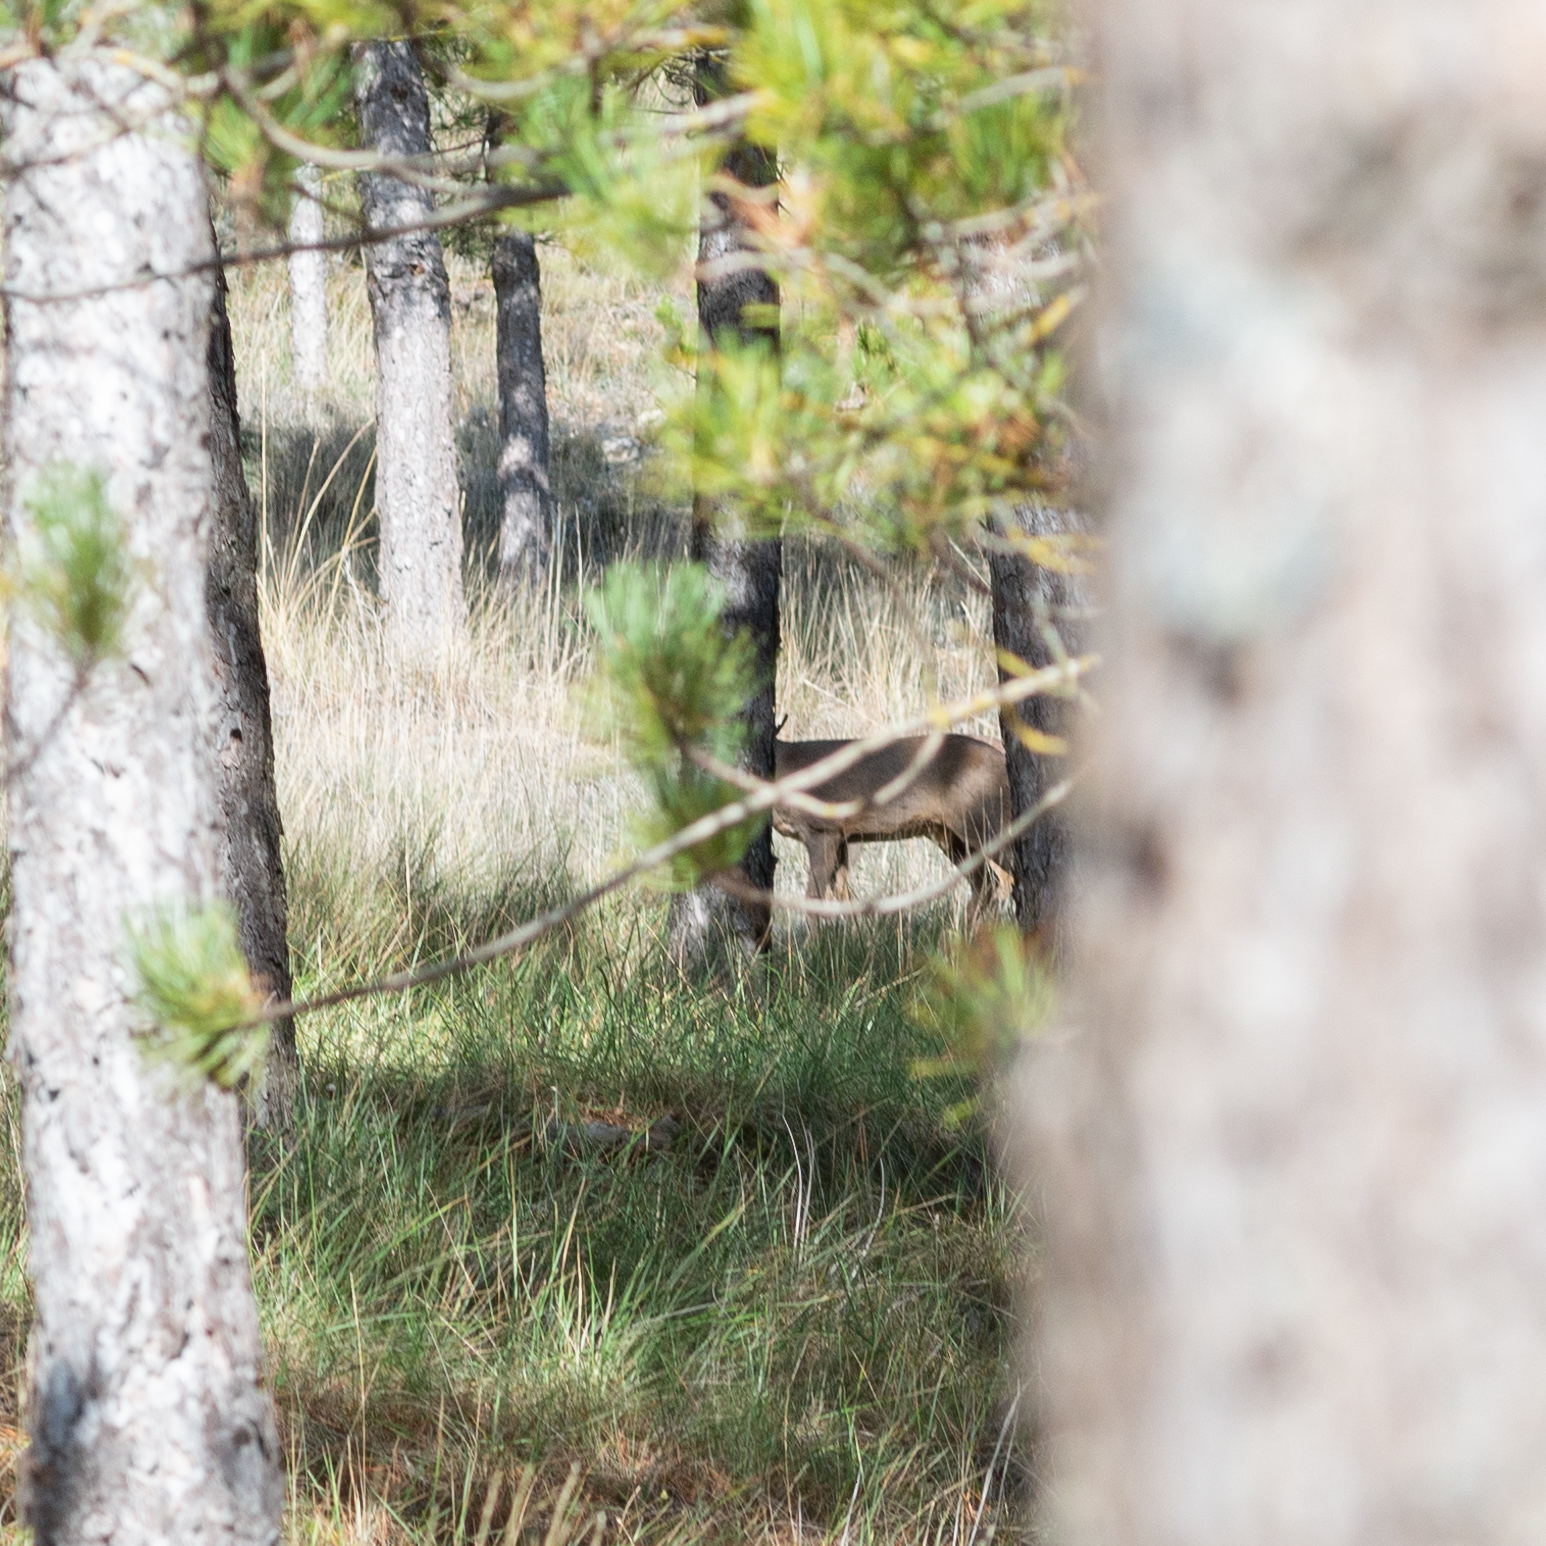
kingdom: Animalia
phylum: Chordata
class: Mammalia
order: Artiodactyla
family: Cervidae
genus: Capreolus
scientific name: Capreolus capreolus
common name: Western roe deer
